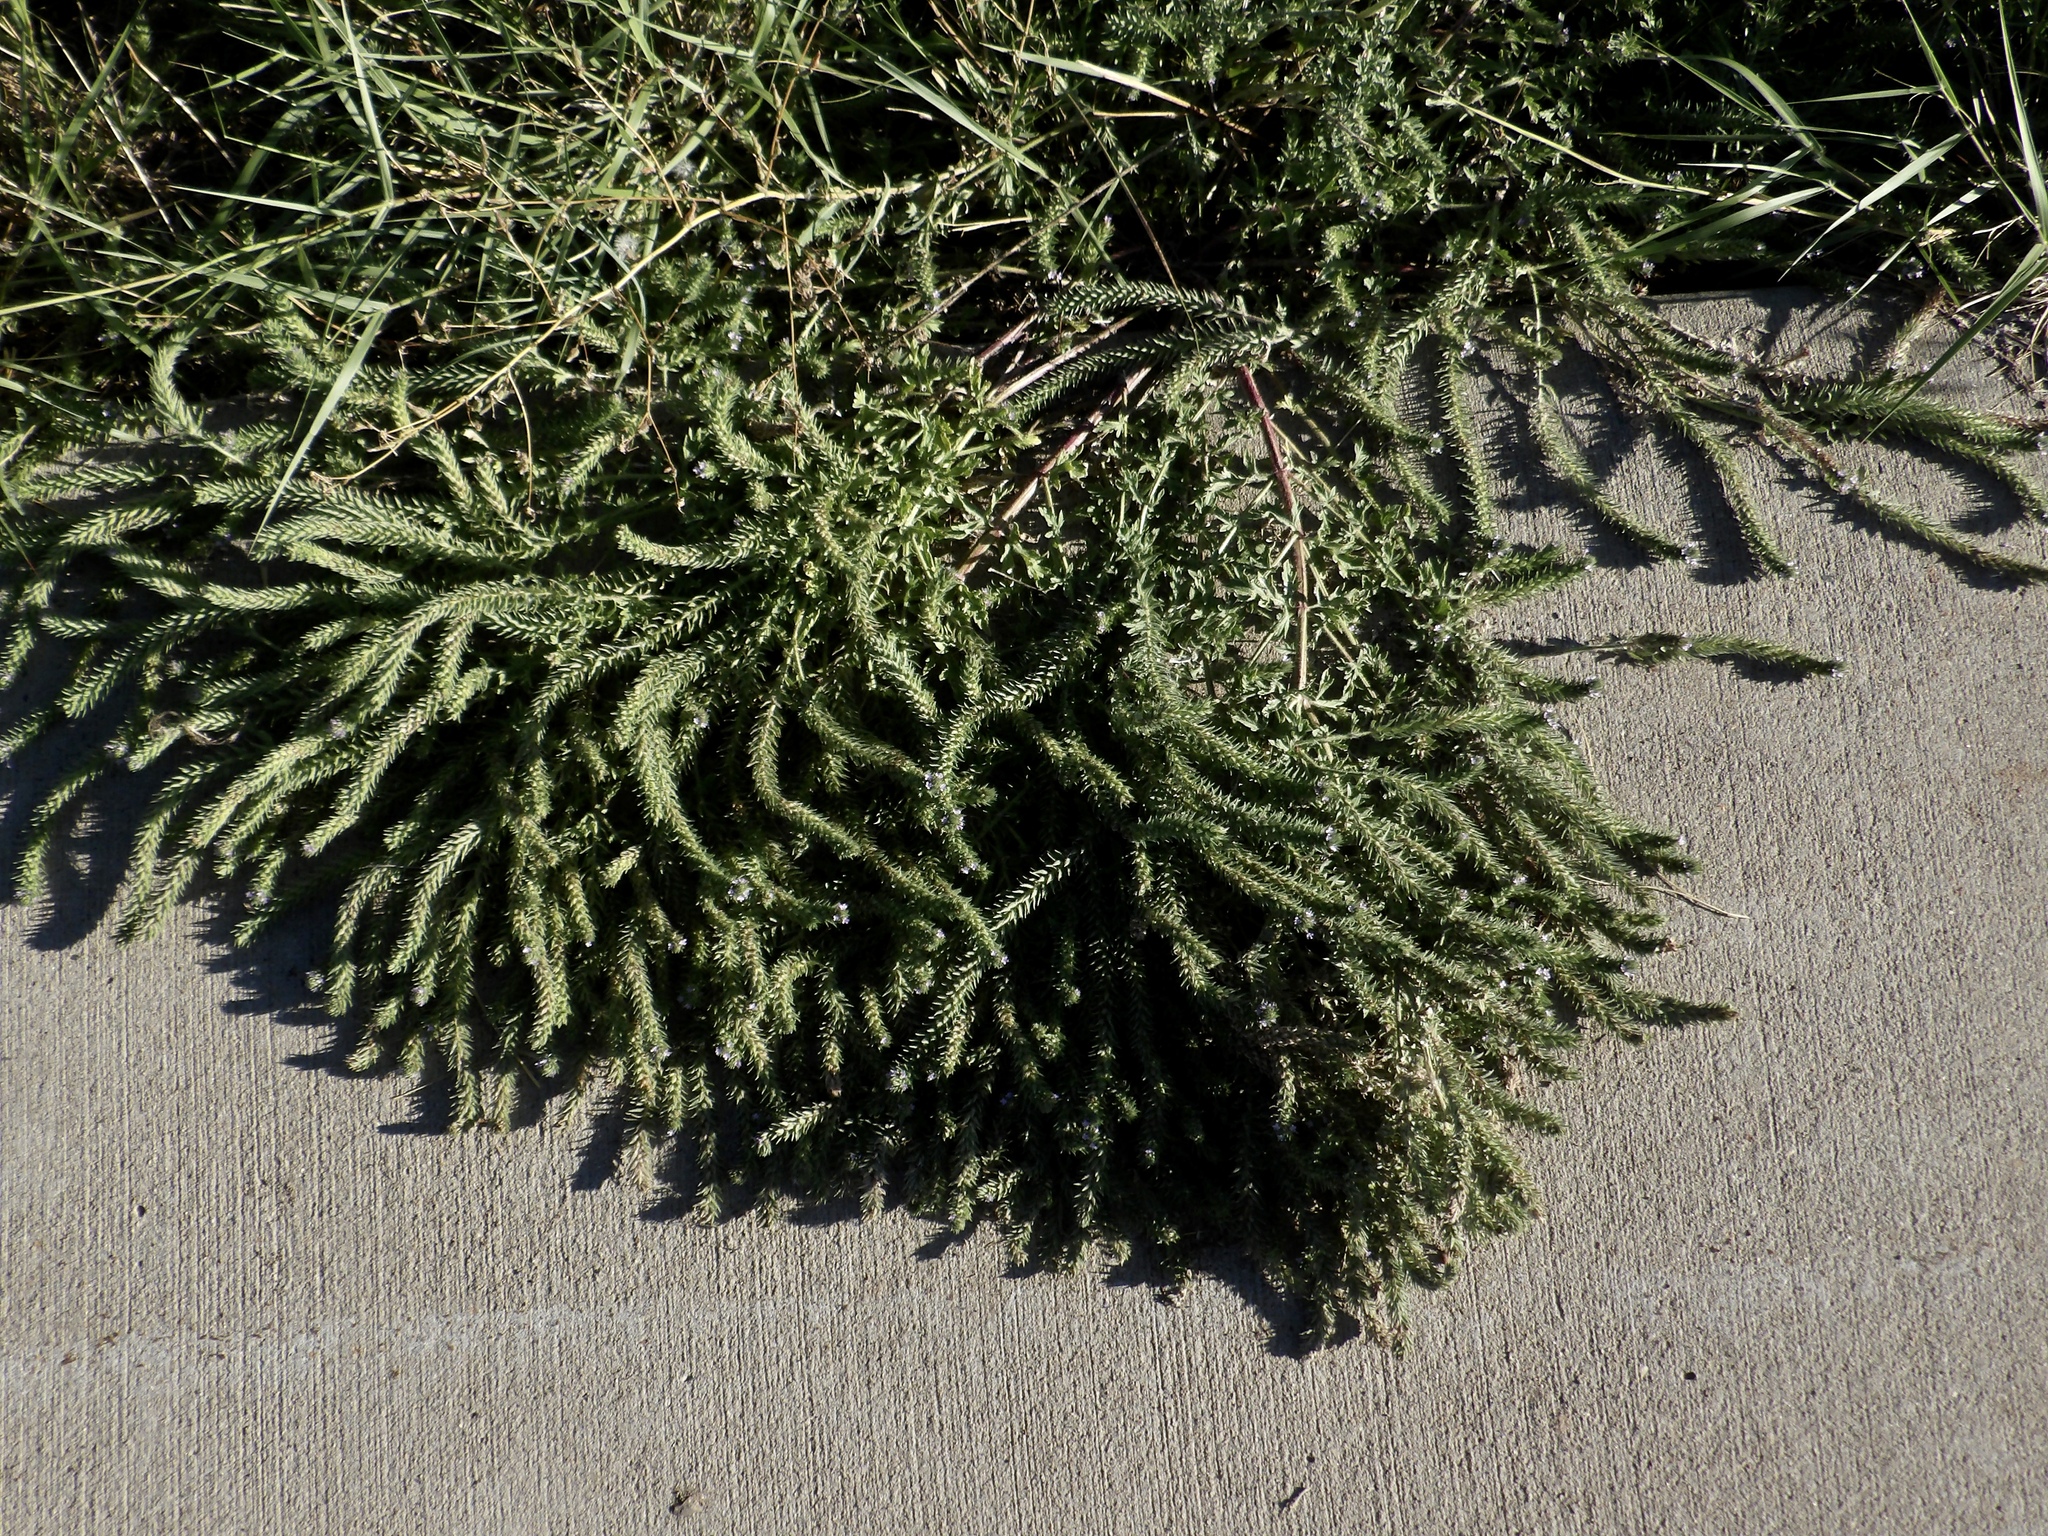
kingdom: Plantae
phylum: Tracheophyta
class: Magnoliopsida
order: Lamiales
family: Verbenaceae
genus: Verbena
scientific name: Verbena bracteata
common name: Bracted vervain
